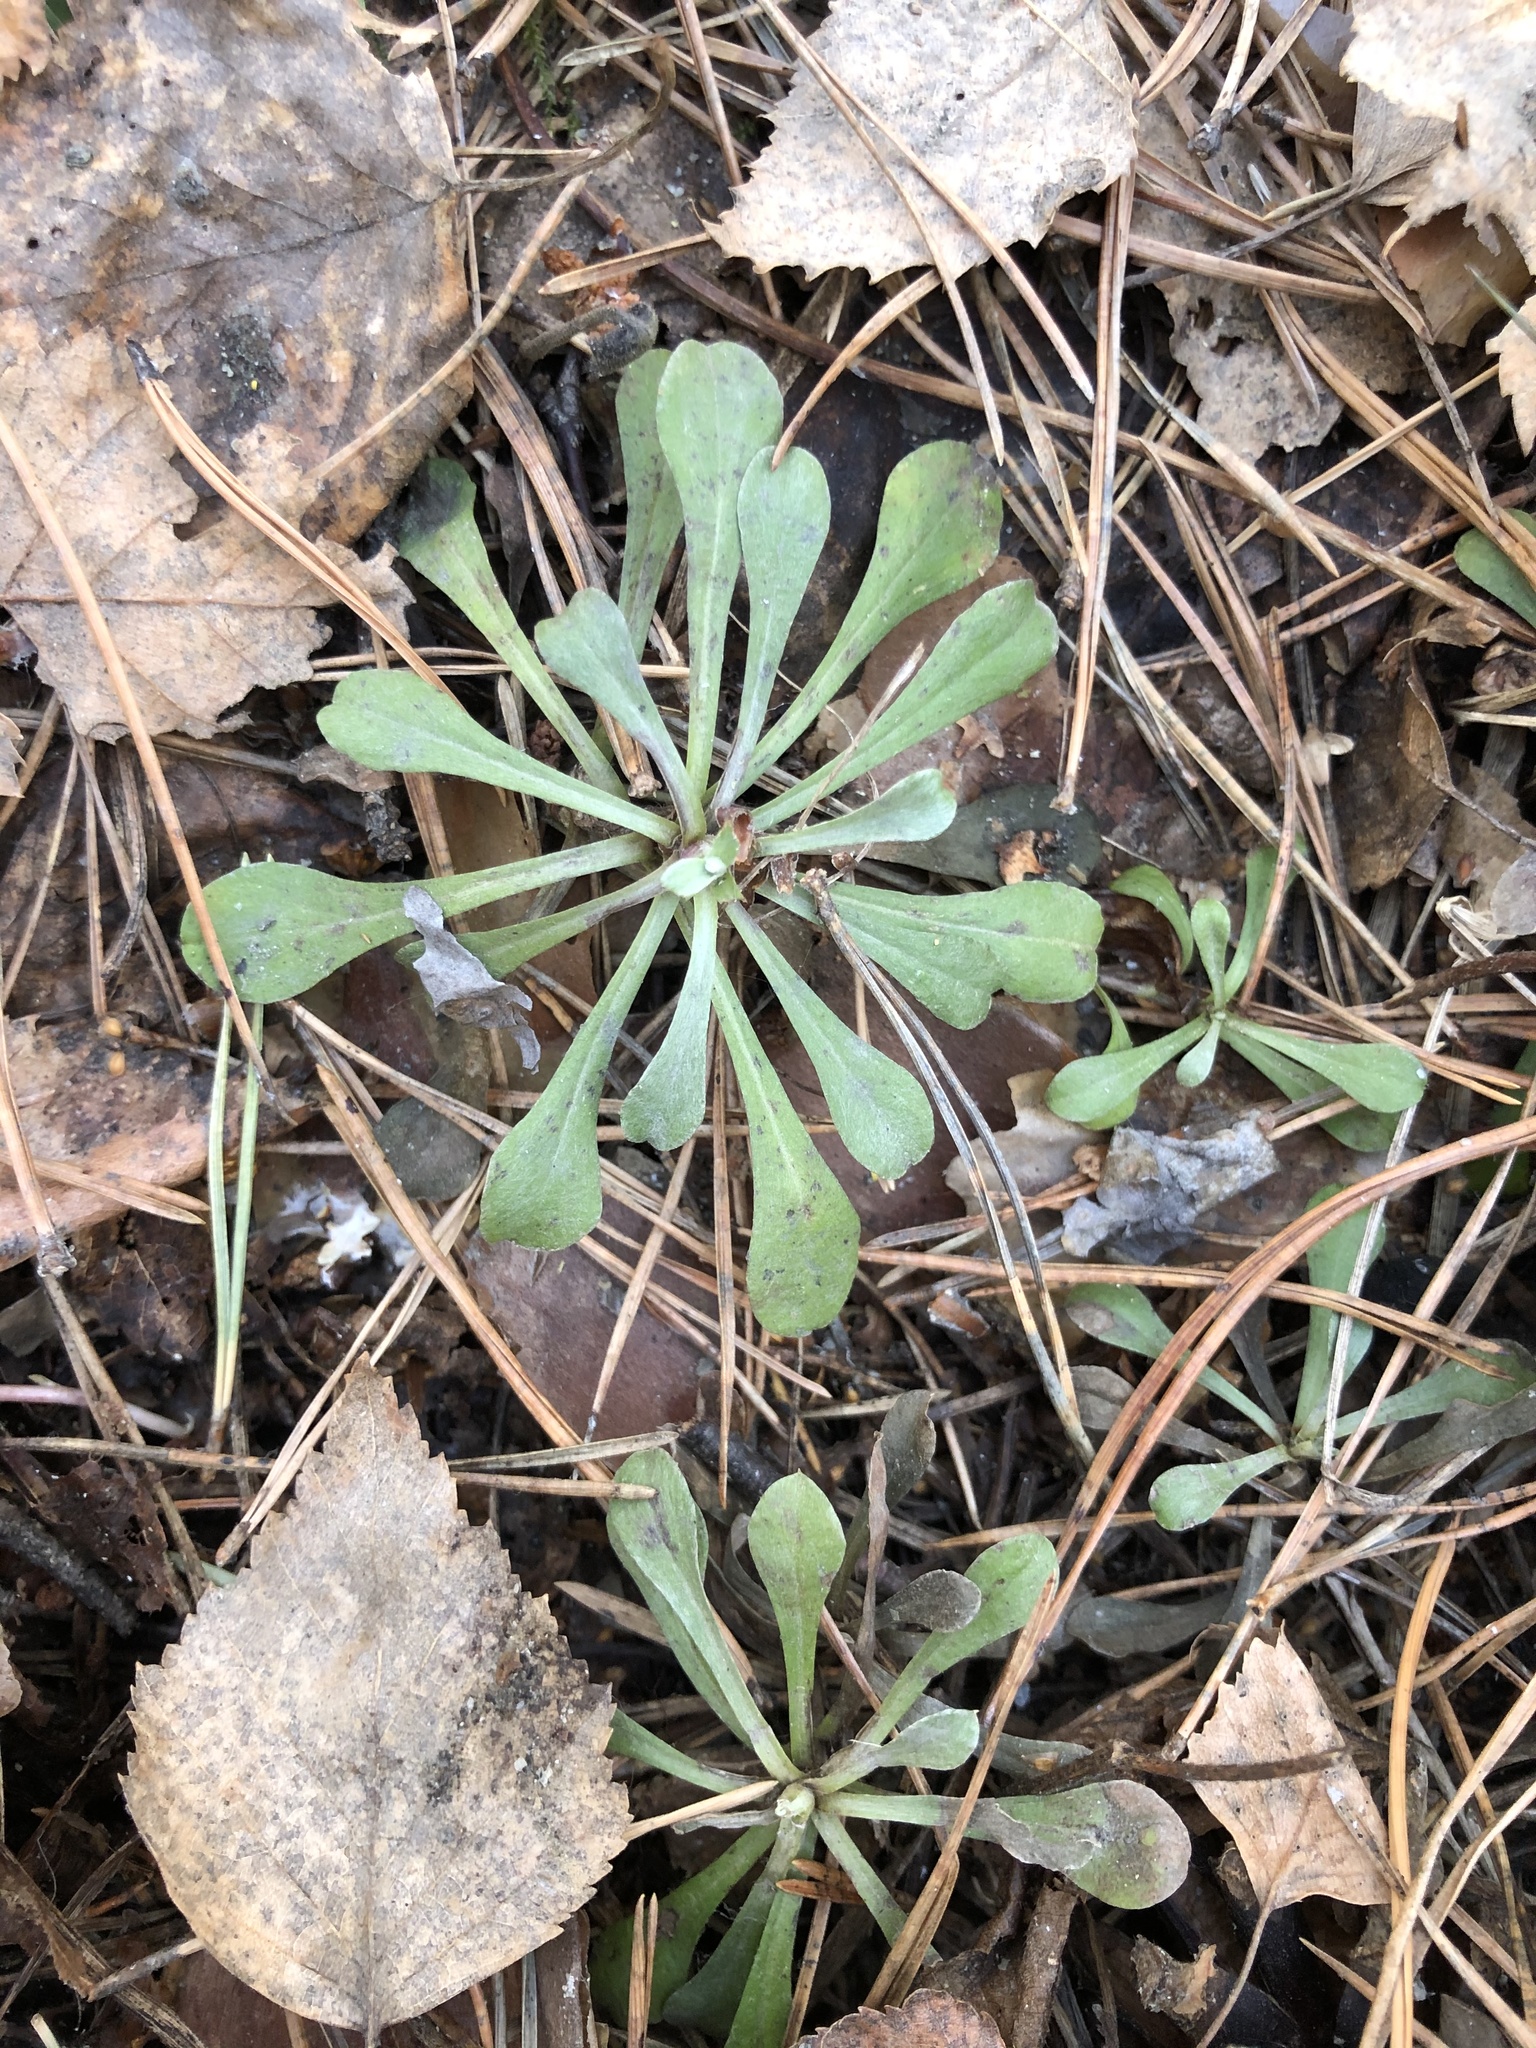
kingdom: Plantae
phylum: Tracheophyta
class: Magnoliopsida
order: Asterales
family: Asteraceae
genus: Antennaria
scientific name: Antennaria dioica
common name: Mountain everlasting
